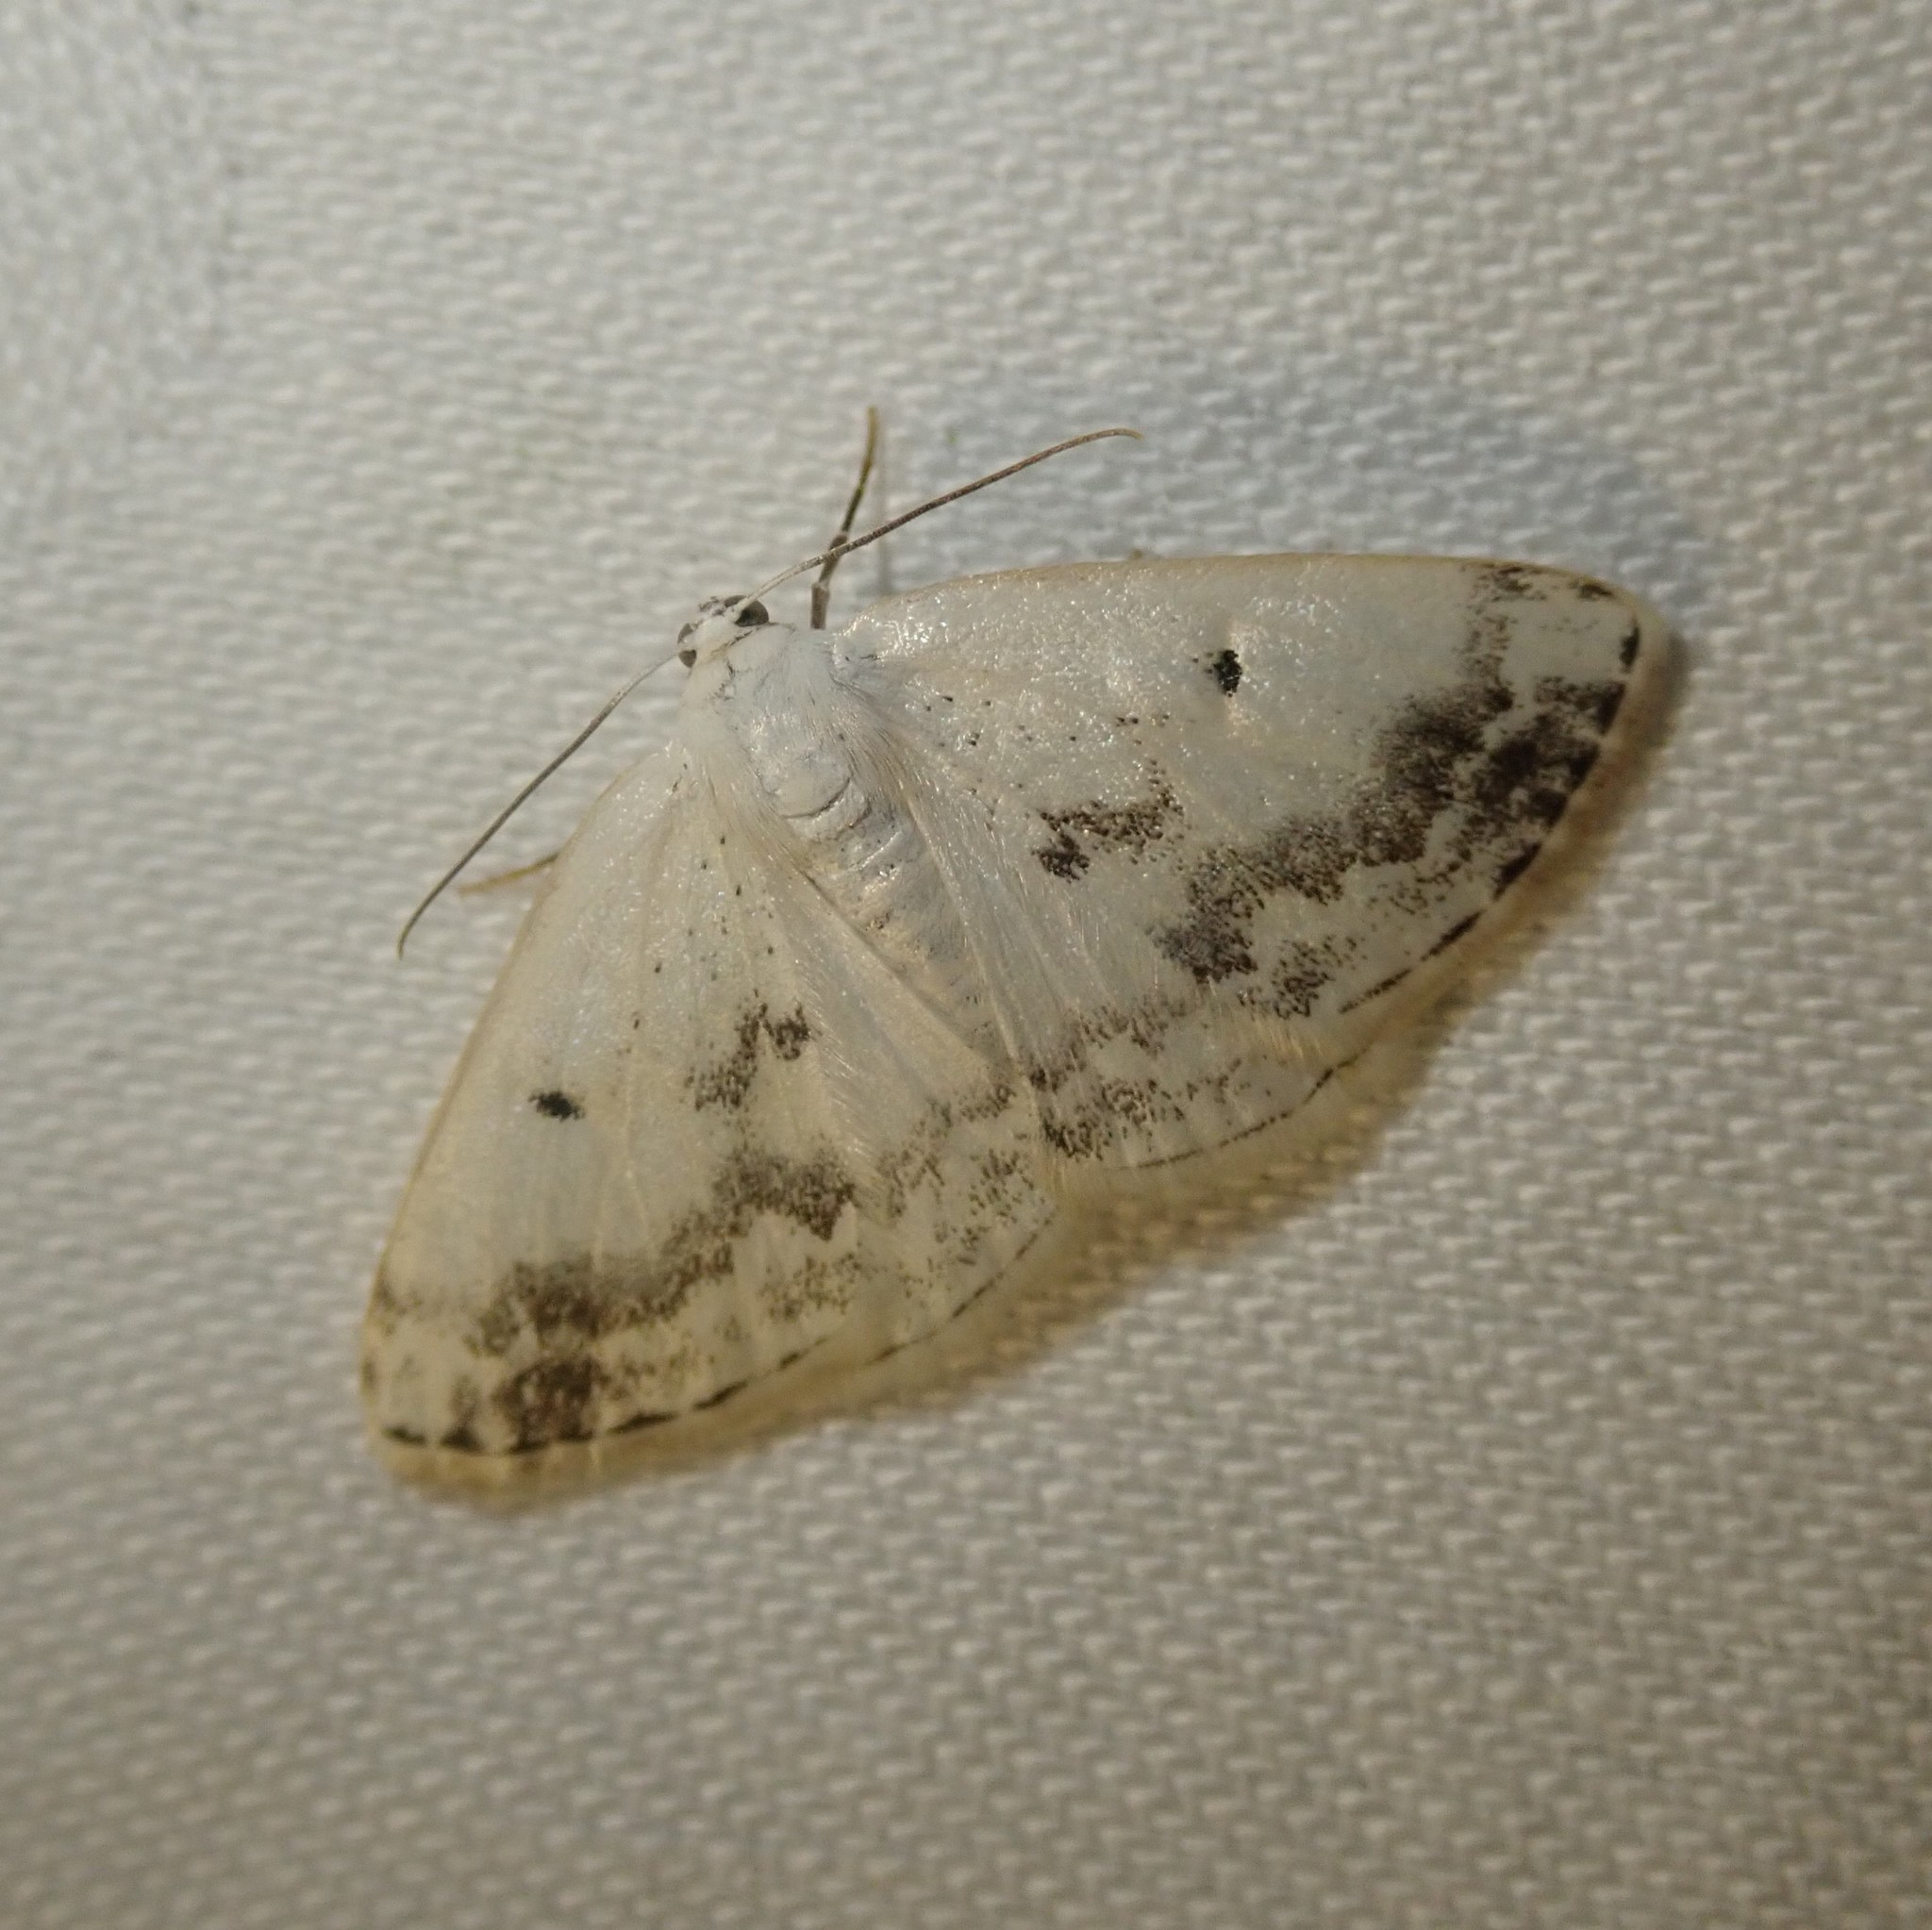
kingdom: Animalia
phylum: Arthropoda
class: Insecta
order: Lepidoptera
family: Geometridae
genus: Lomographa
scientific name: Lomographa temerata
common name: Clouded silver
